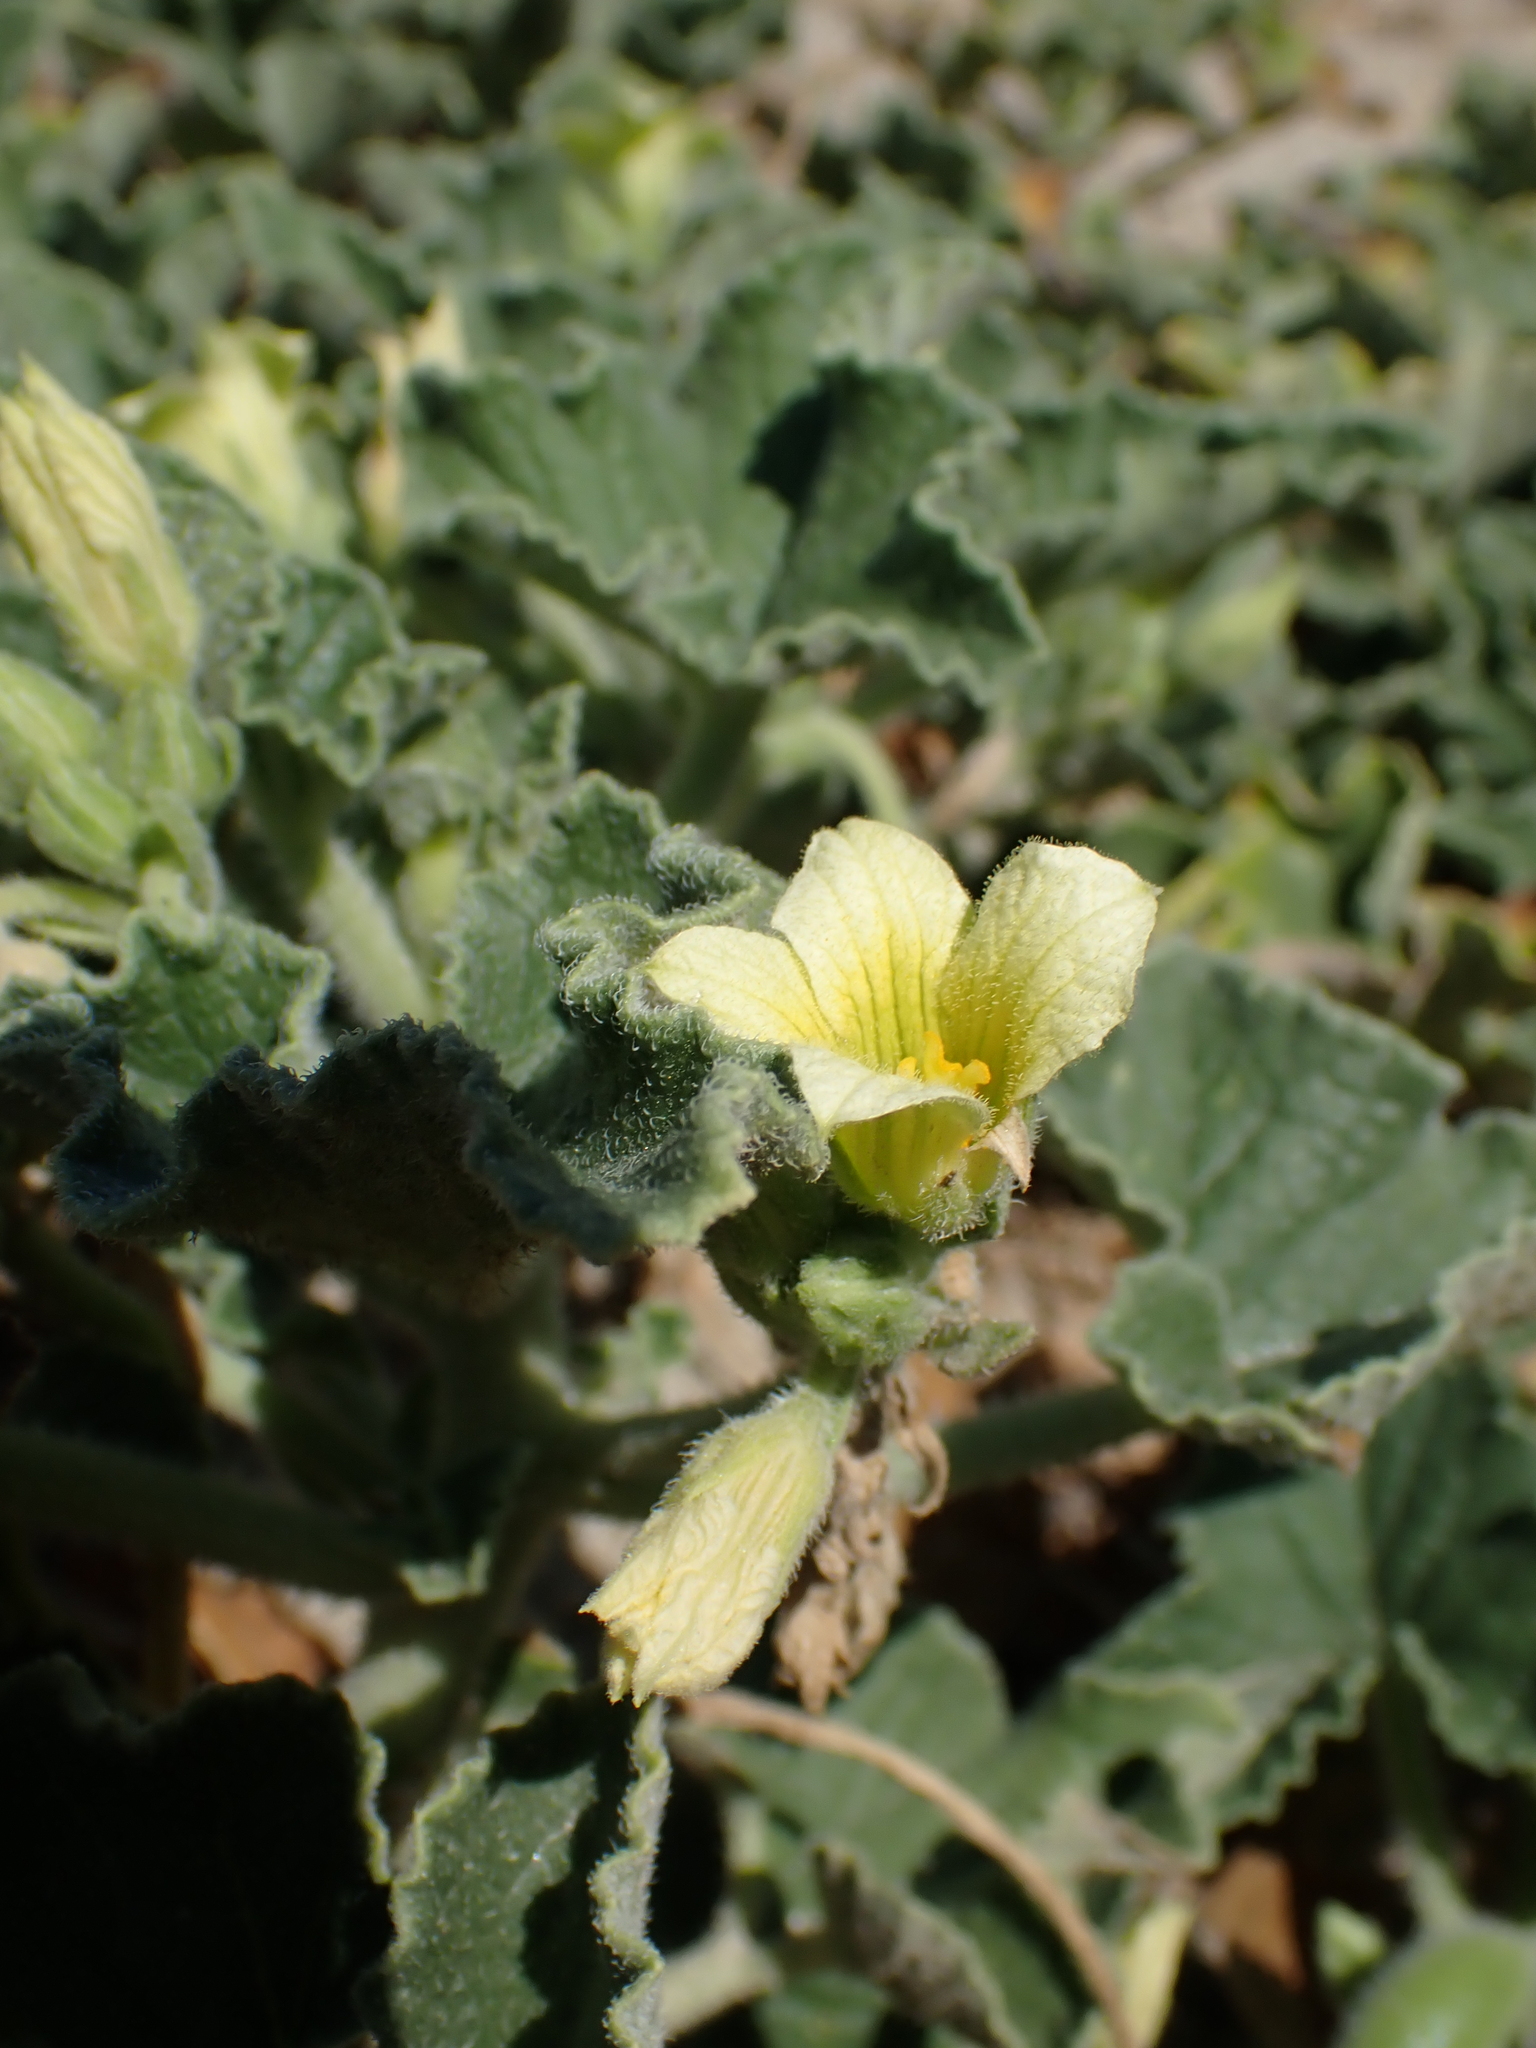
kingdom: Plantae
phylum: Tracheophyta
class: Magnoliopsida
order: Caryophyllales
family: Polygonaceae
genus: Polygonum
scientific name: Polygonum maritimum
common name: Sea knotgrass
